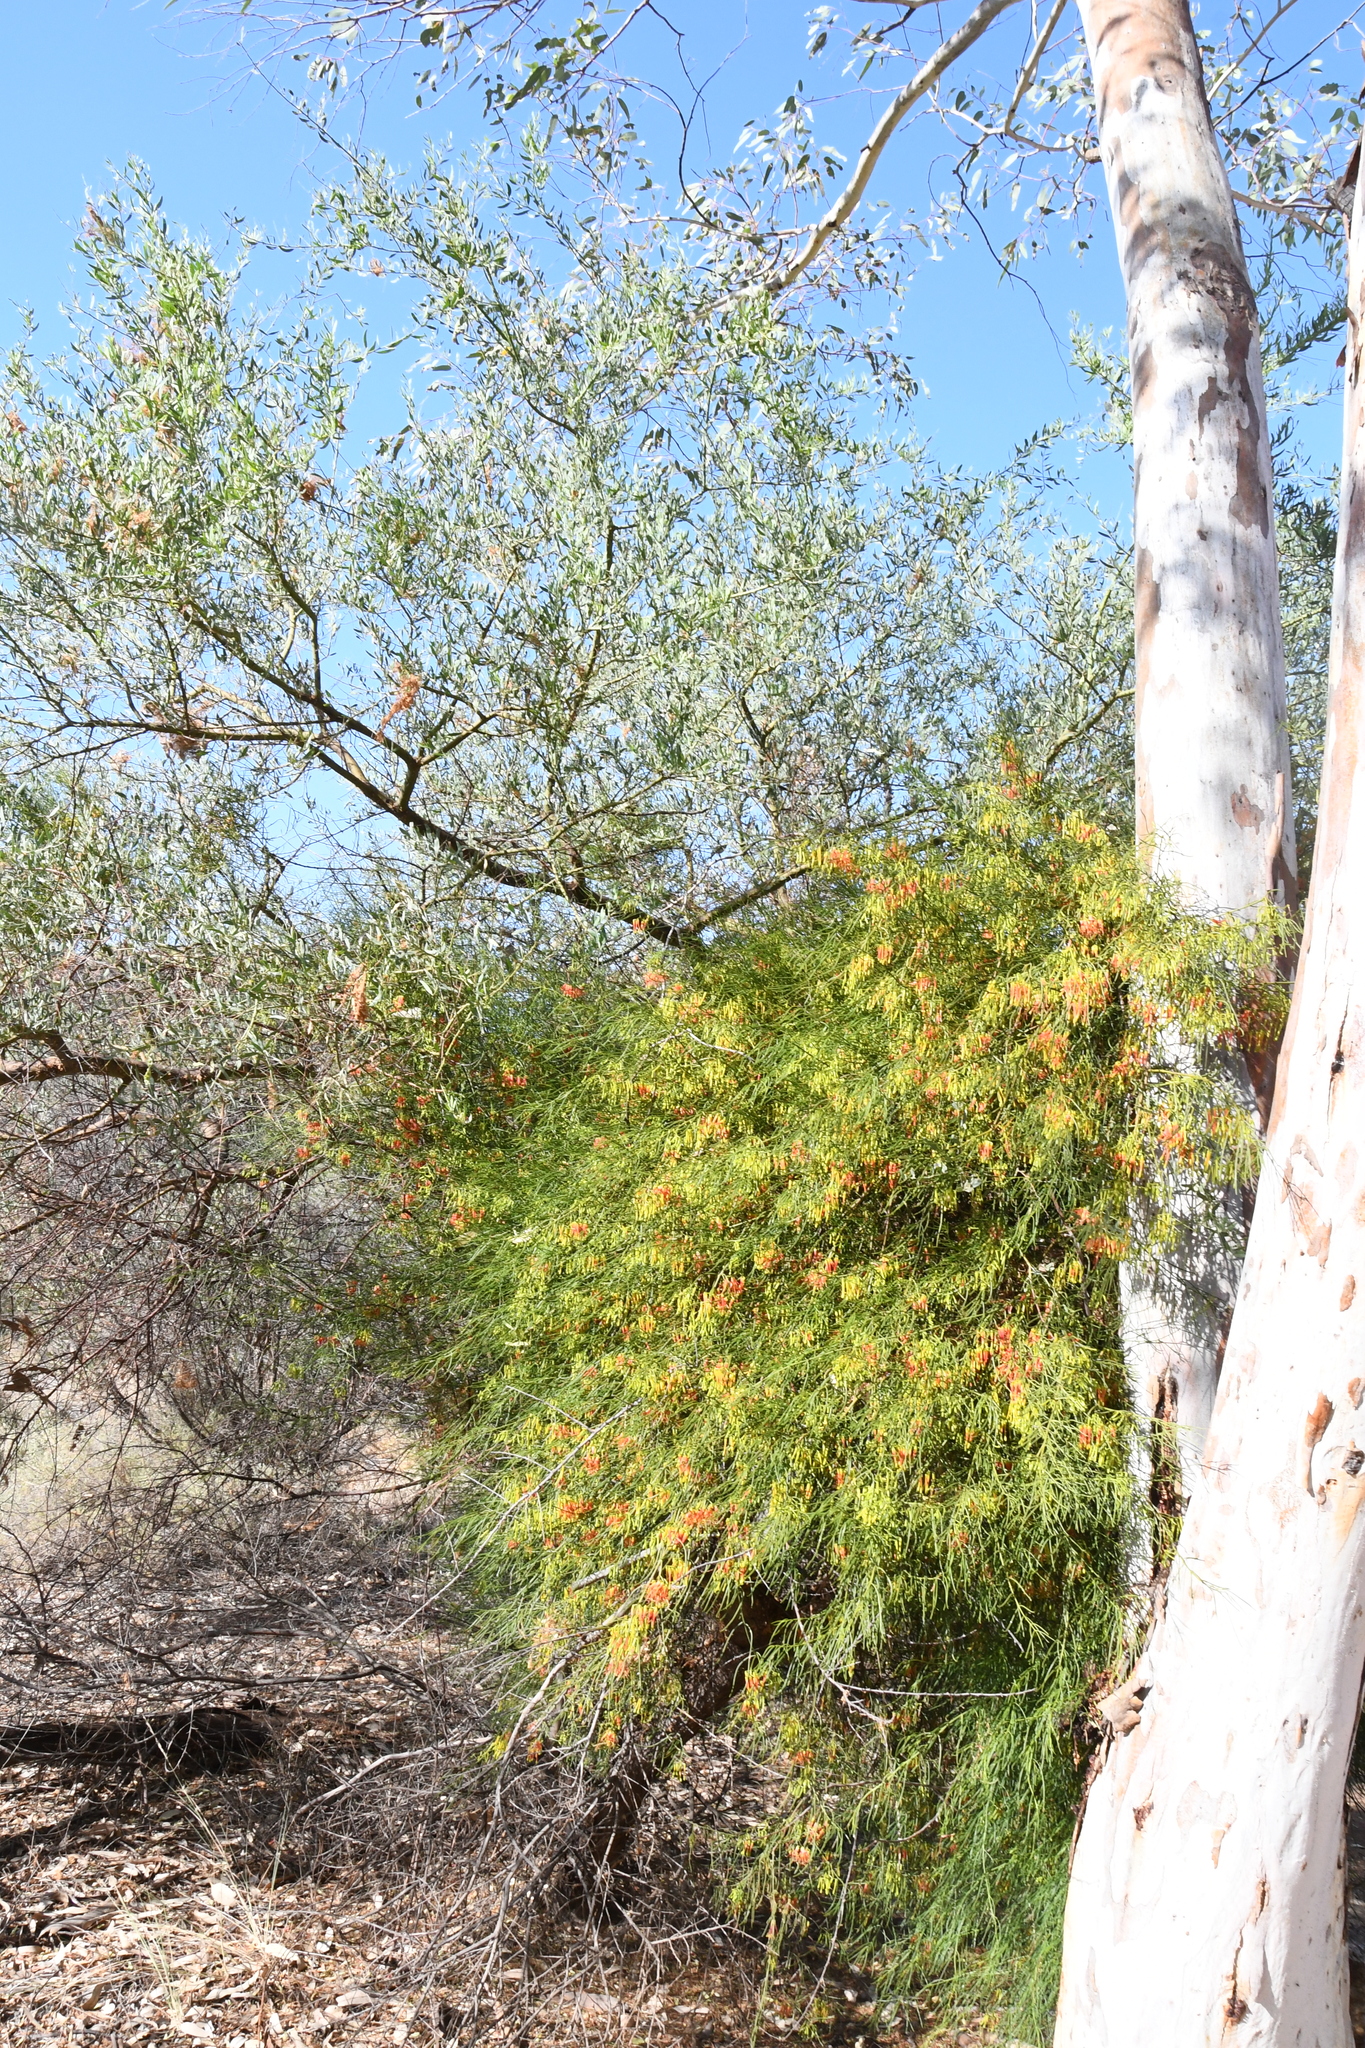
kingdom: Plantae
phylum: Tracheophyta
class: Magnoliopsida
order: Santalales
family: Loranthaceae
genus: Amyema
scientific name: Amyema preissii
